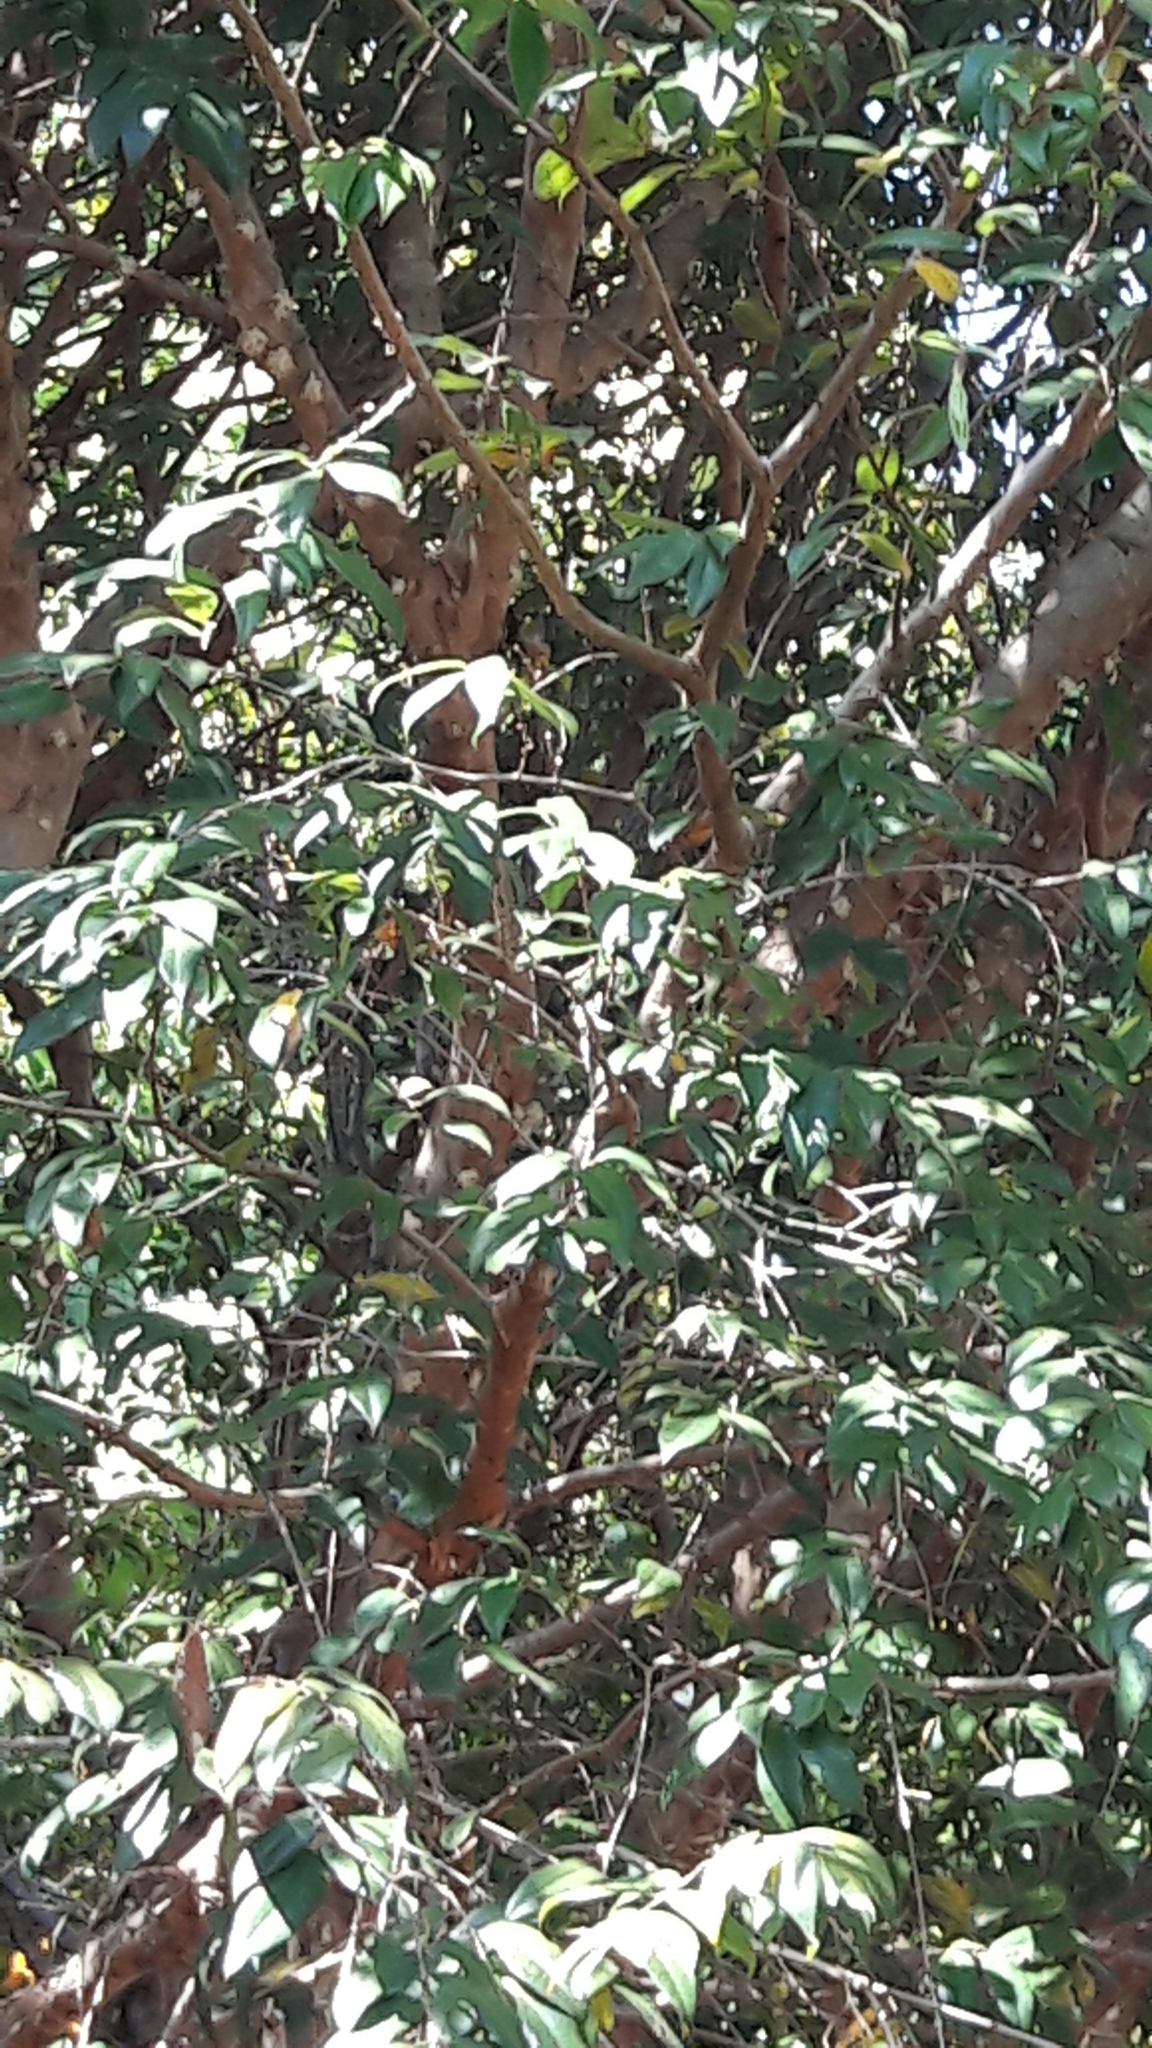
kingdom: Plantae
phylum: Tracheophyta
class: Magnoliopsida
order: Myrtales
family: Myrtaceae
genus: Plinia
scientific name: Plinia cauliflora
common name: Brazilian grapetree
